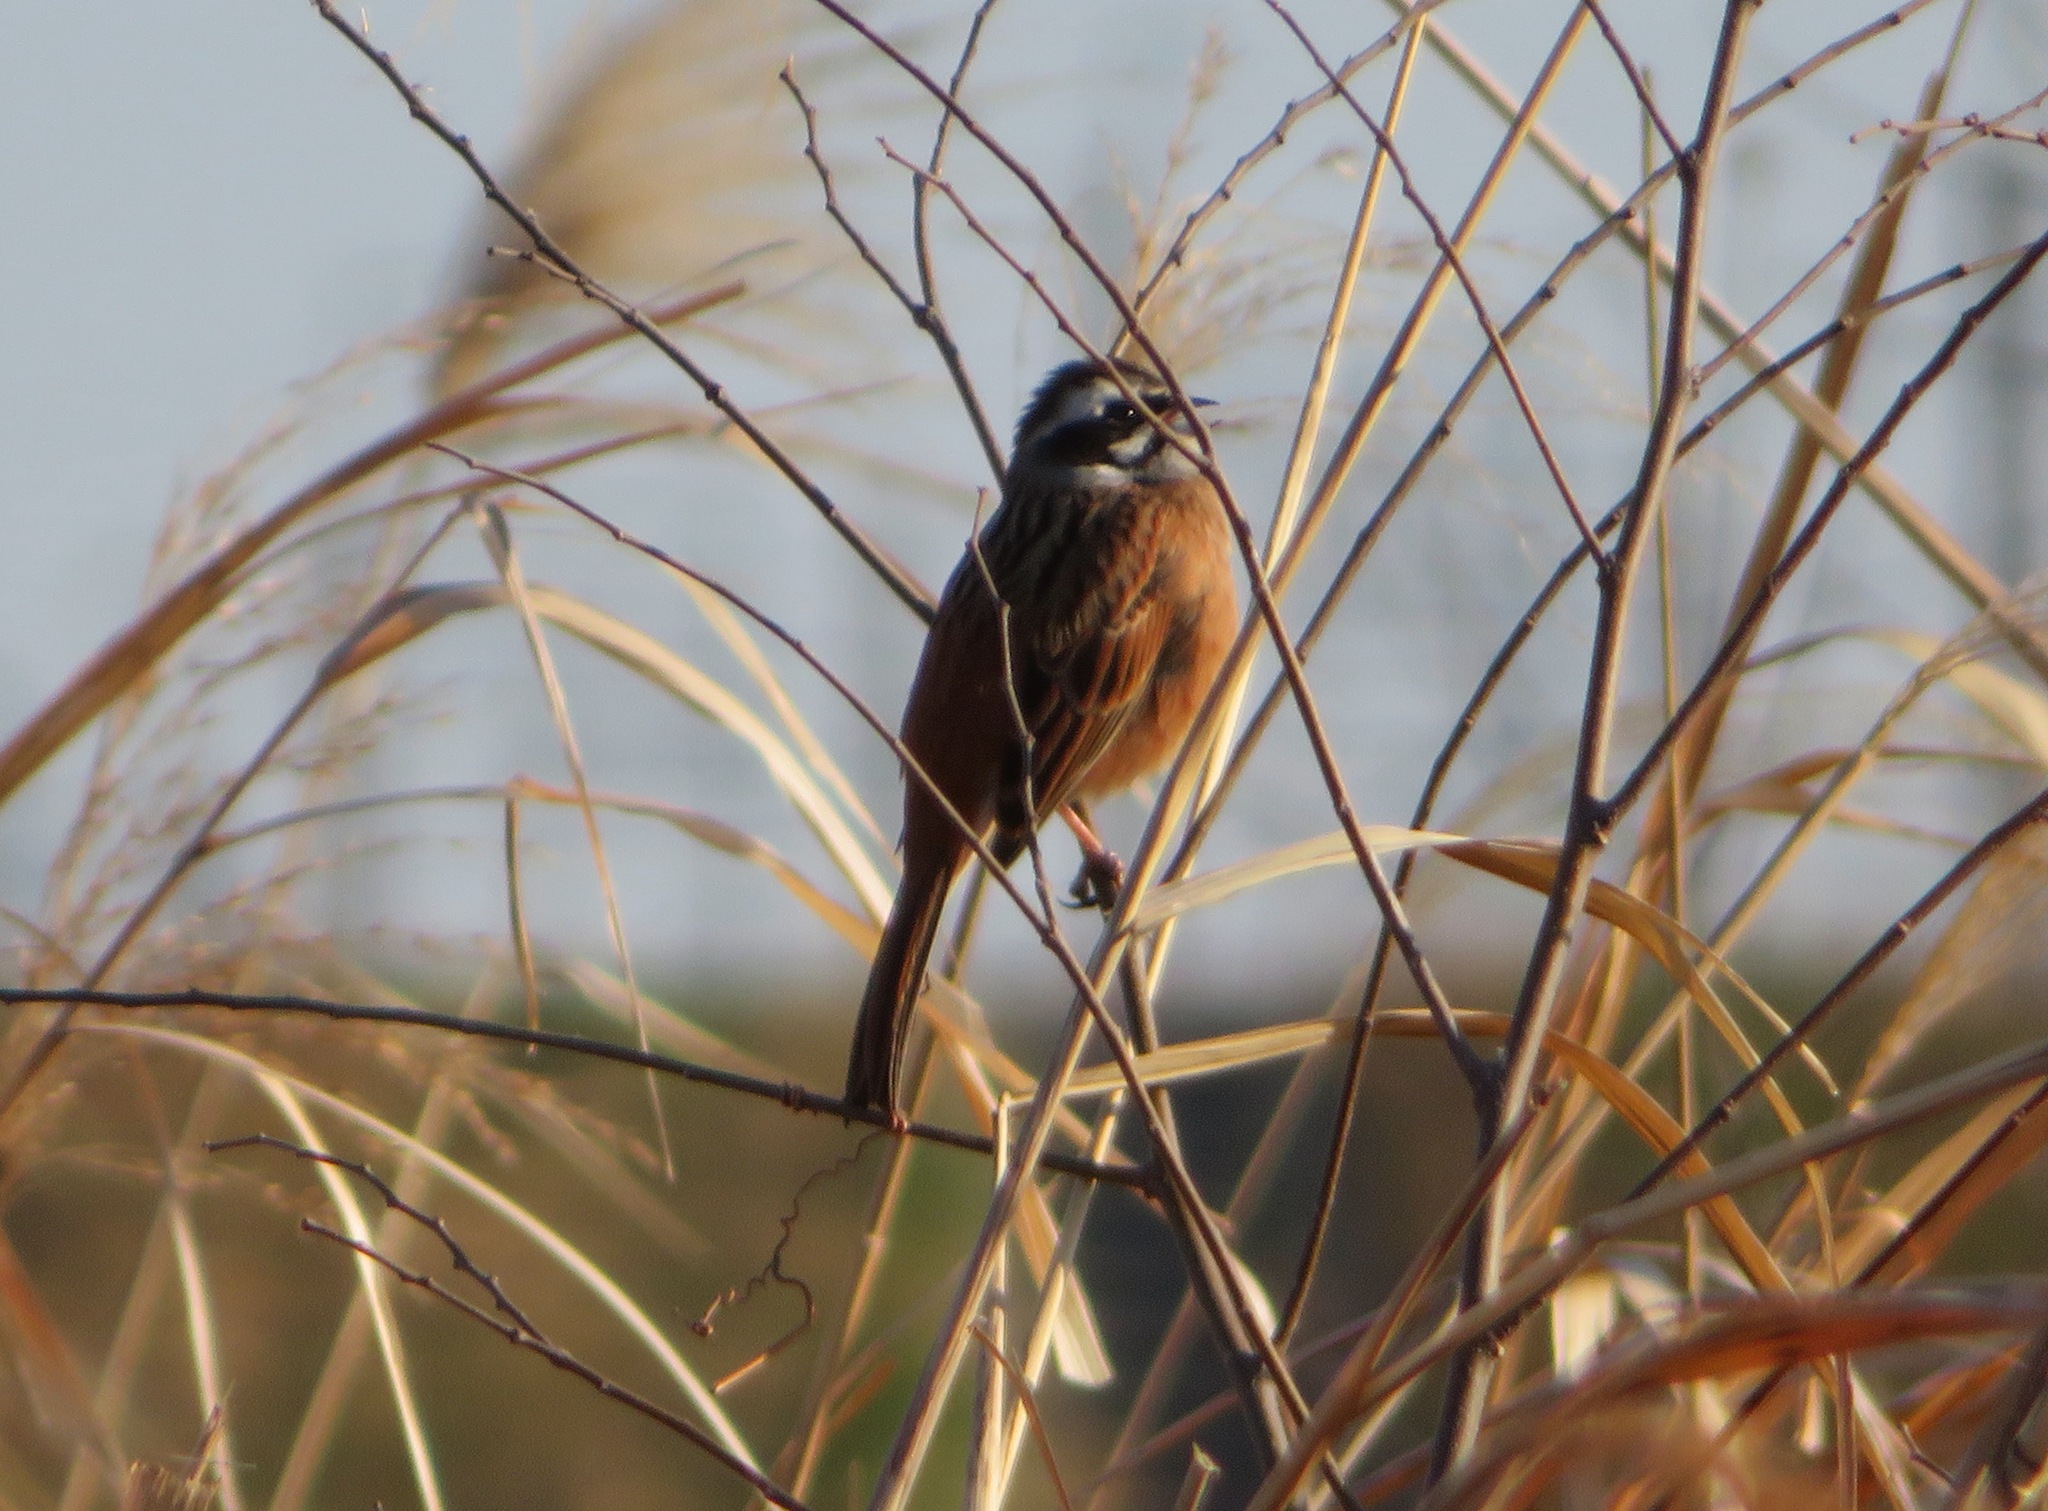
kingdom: Animalia
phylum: Chordata
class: Aves
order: Passeriformes
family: Emberizidae
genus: Emberiza
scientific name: Emberiza cioides
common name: Meadow bunting
